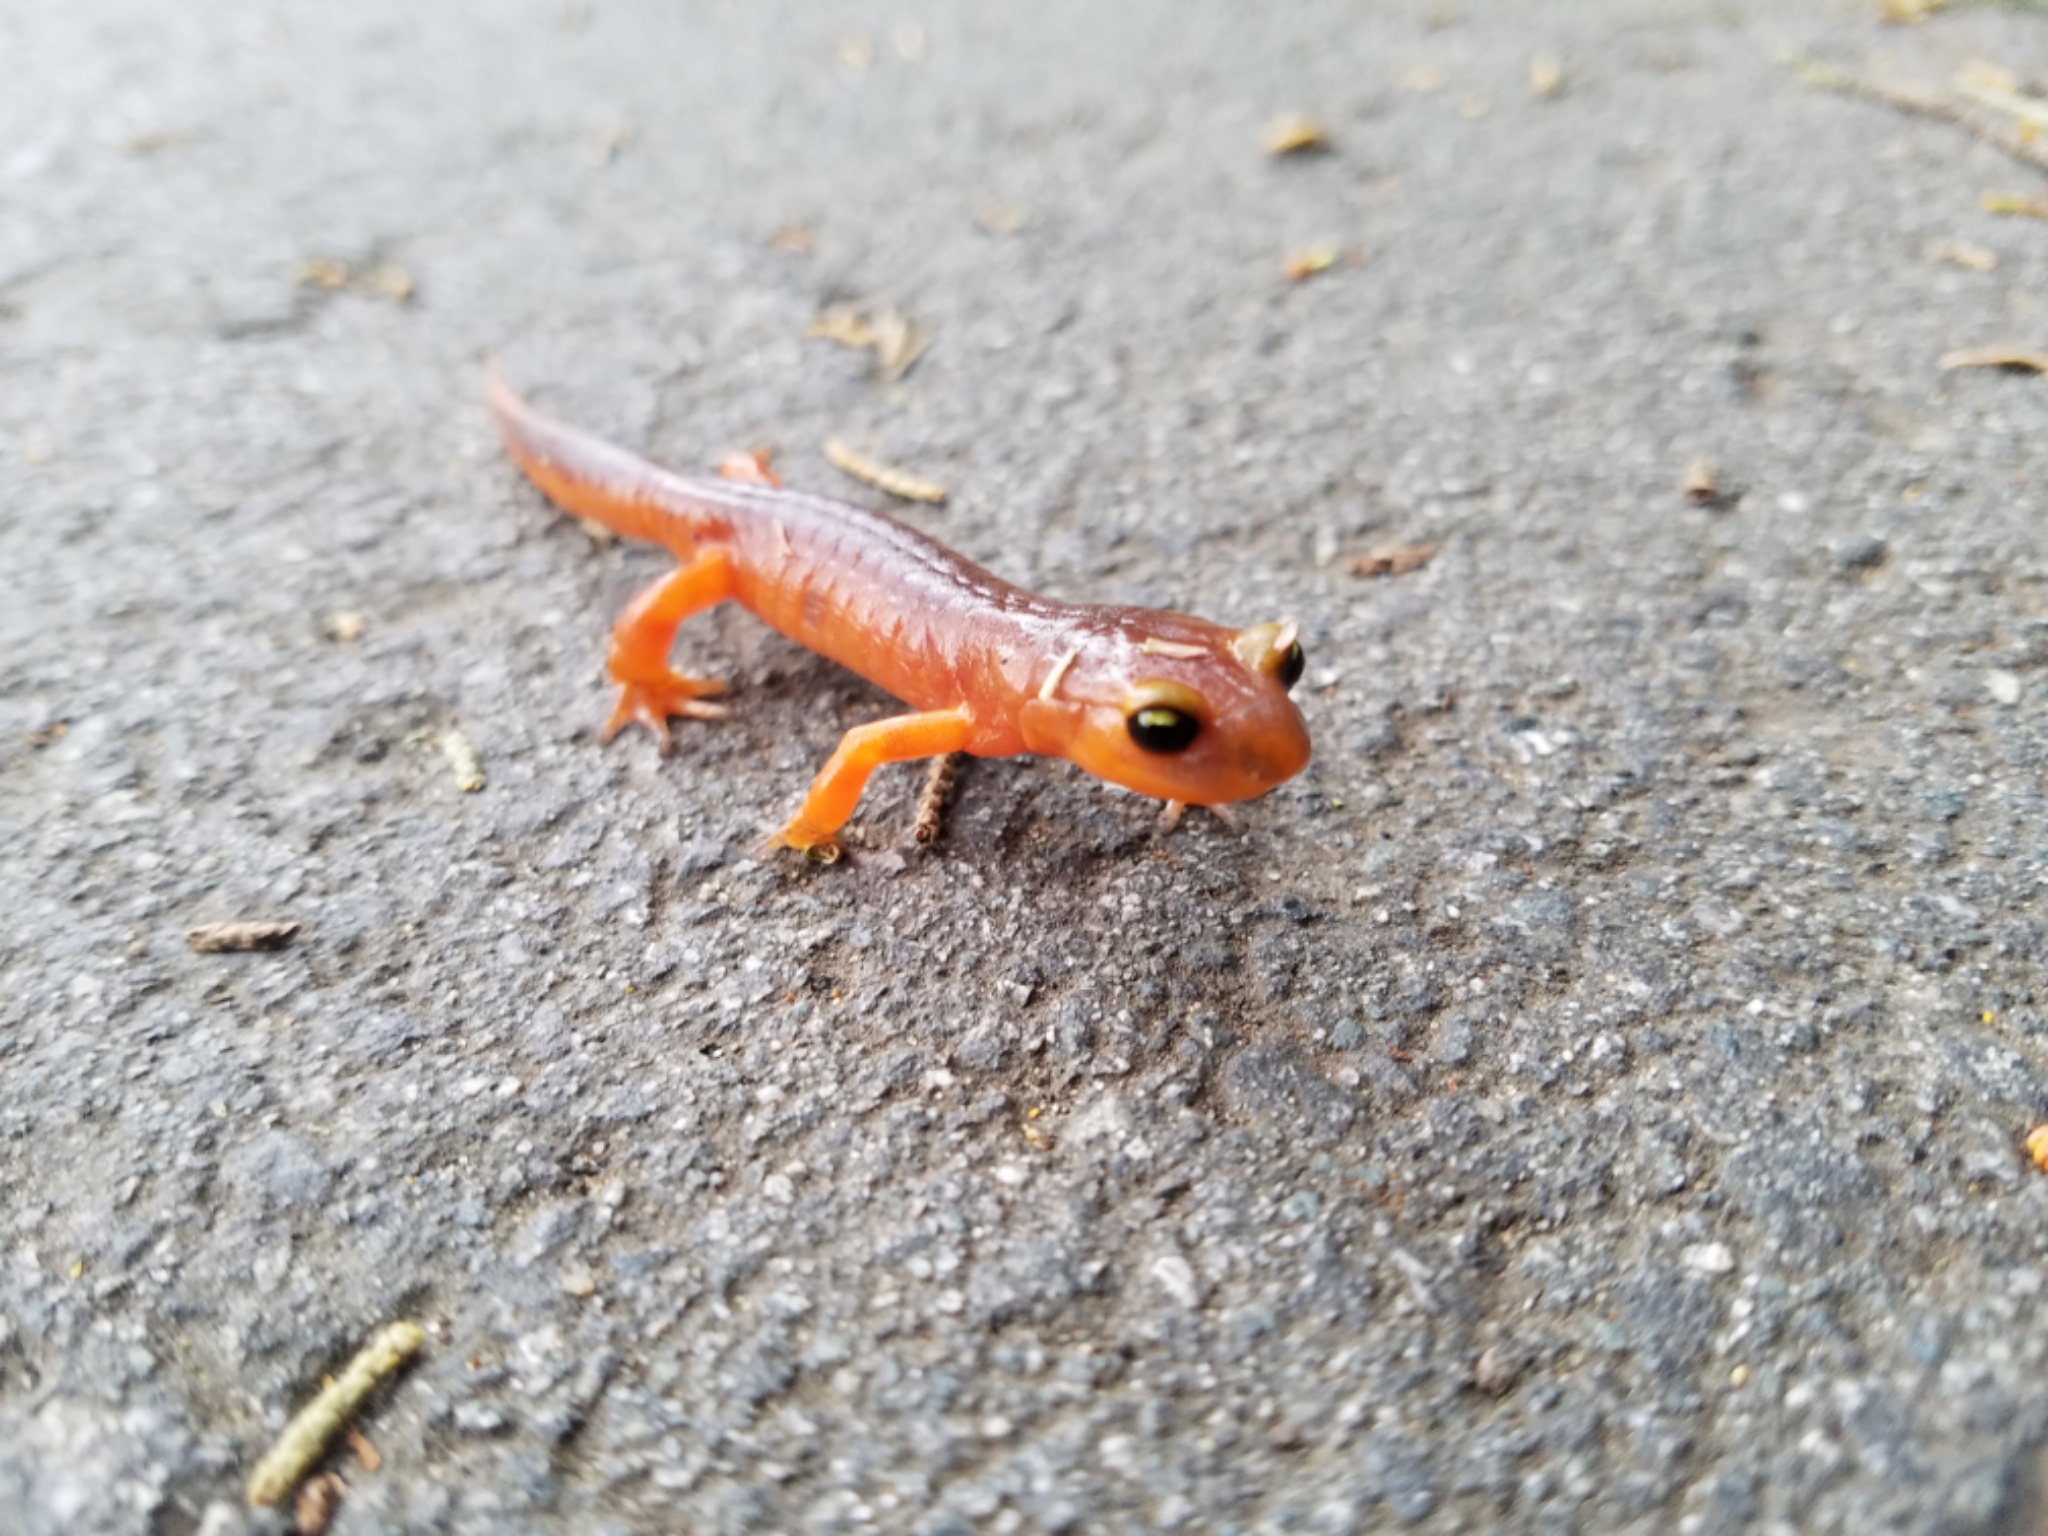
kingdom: Animalia
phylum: Chordata
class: Amphibia
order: Caudata
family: Plethodontidae
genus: Ensatina
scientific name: Ensatina eschscholtzii
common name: Ensatina
